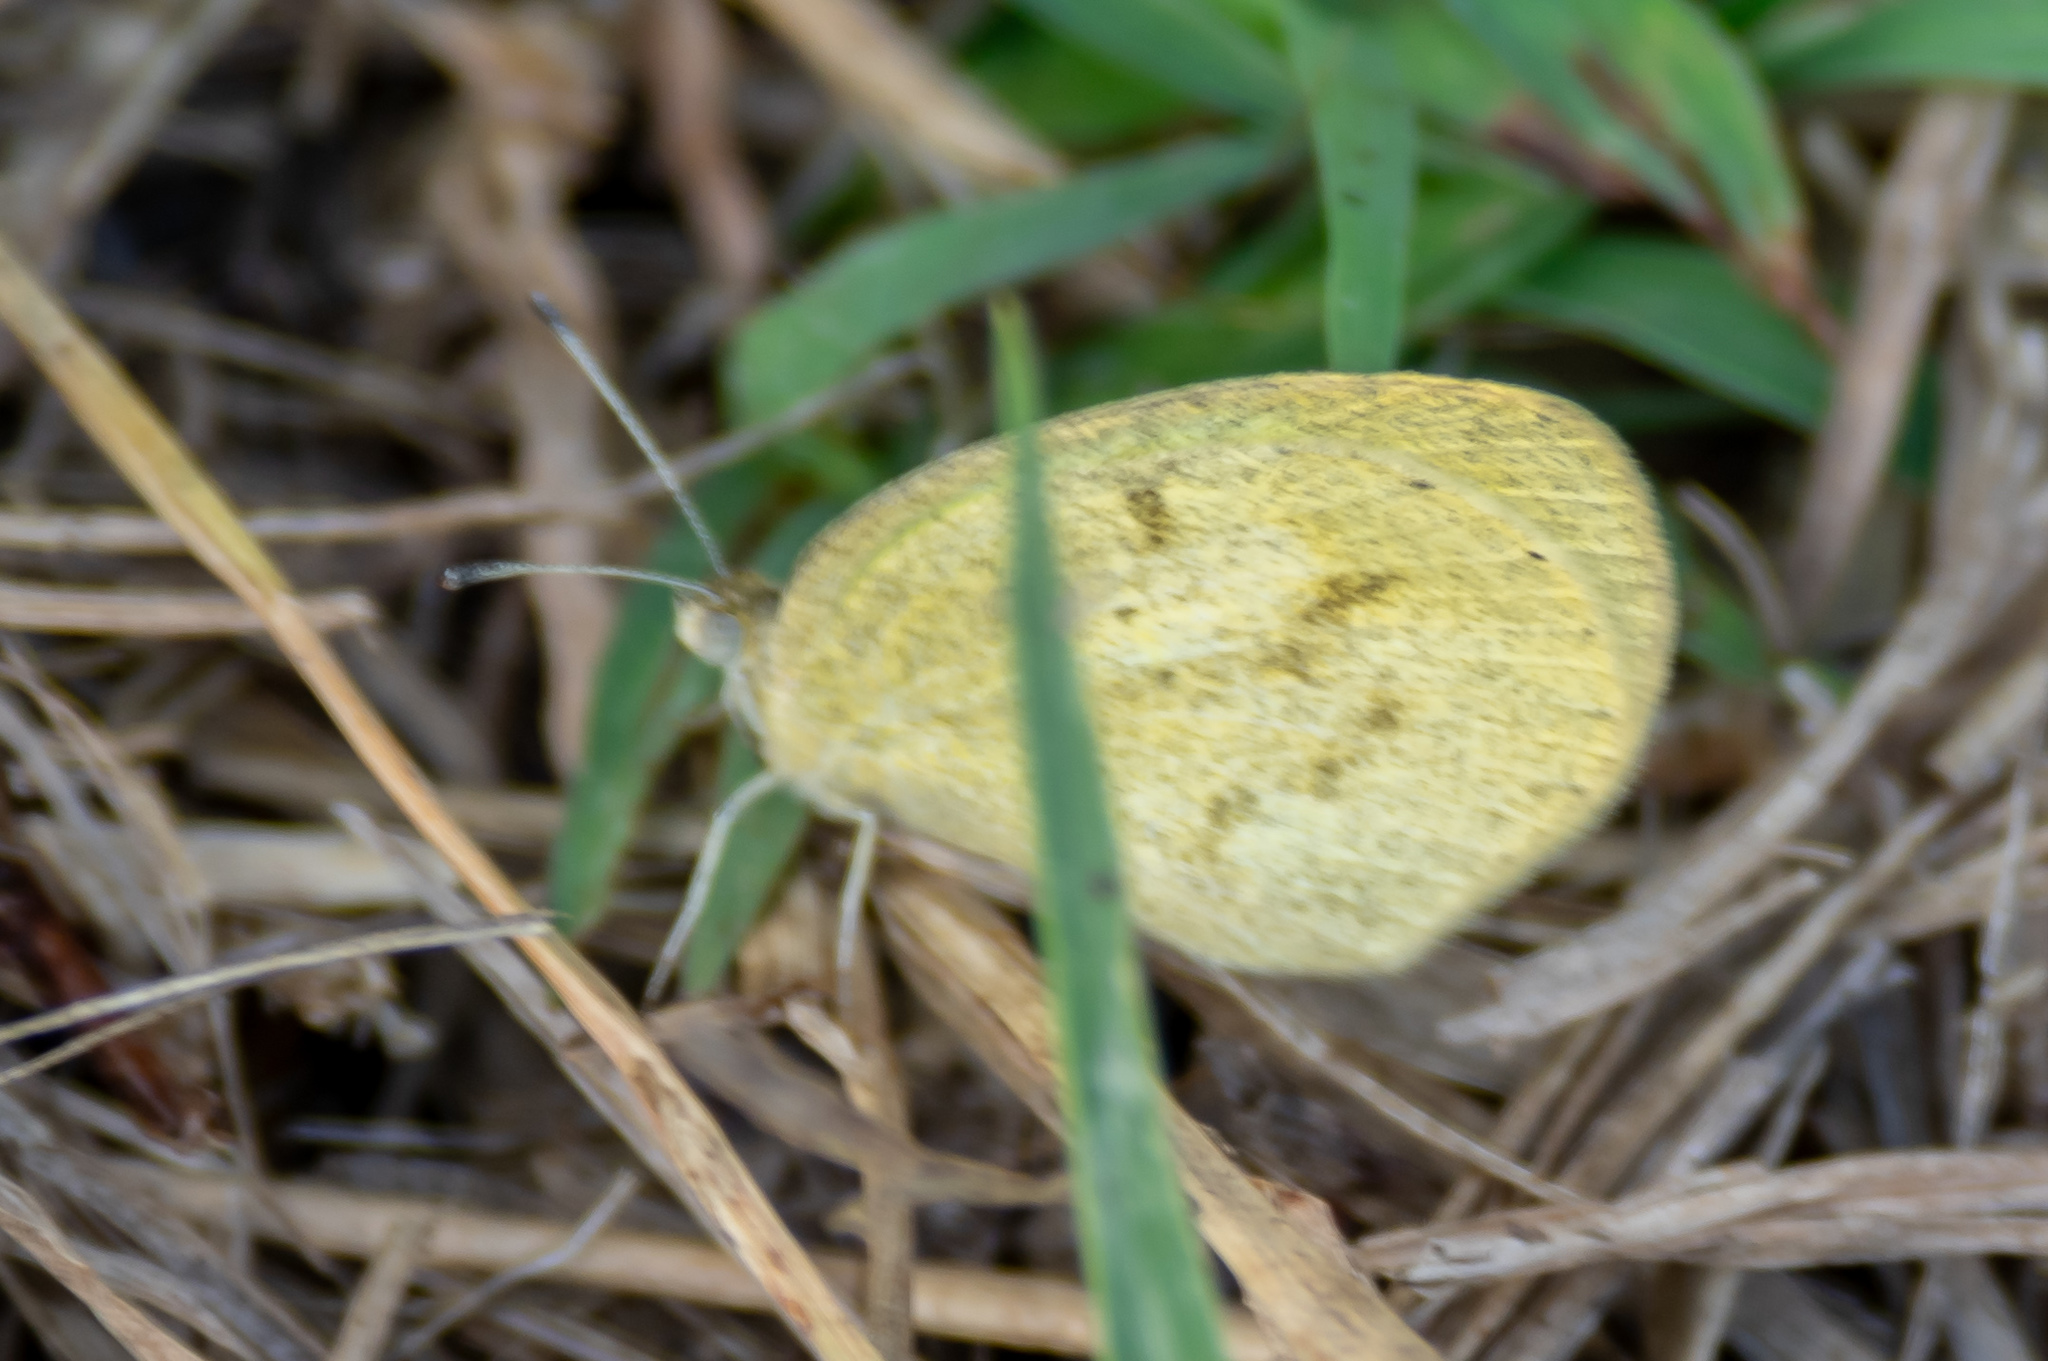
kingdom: Animalia
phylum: Arthropoda
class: Insecta
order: Lepidoptera
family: Pieridae
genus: Eurema
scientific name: Eurema daira
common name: Barred sulphur
